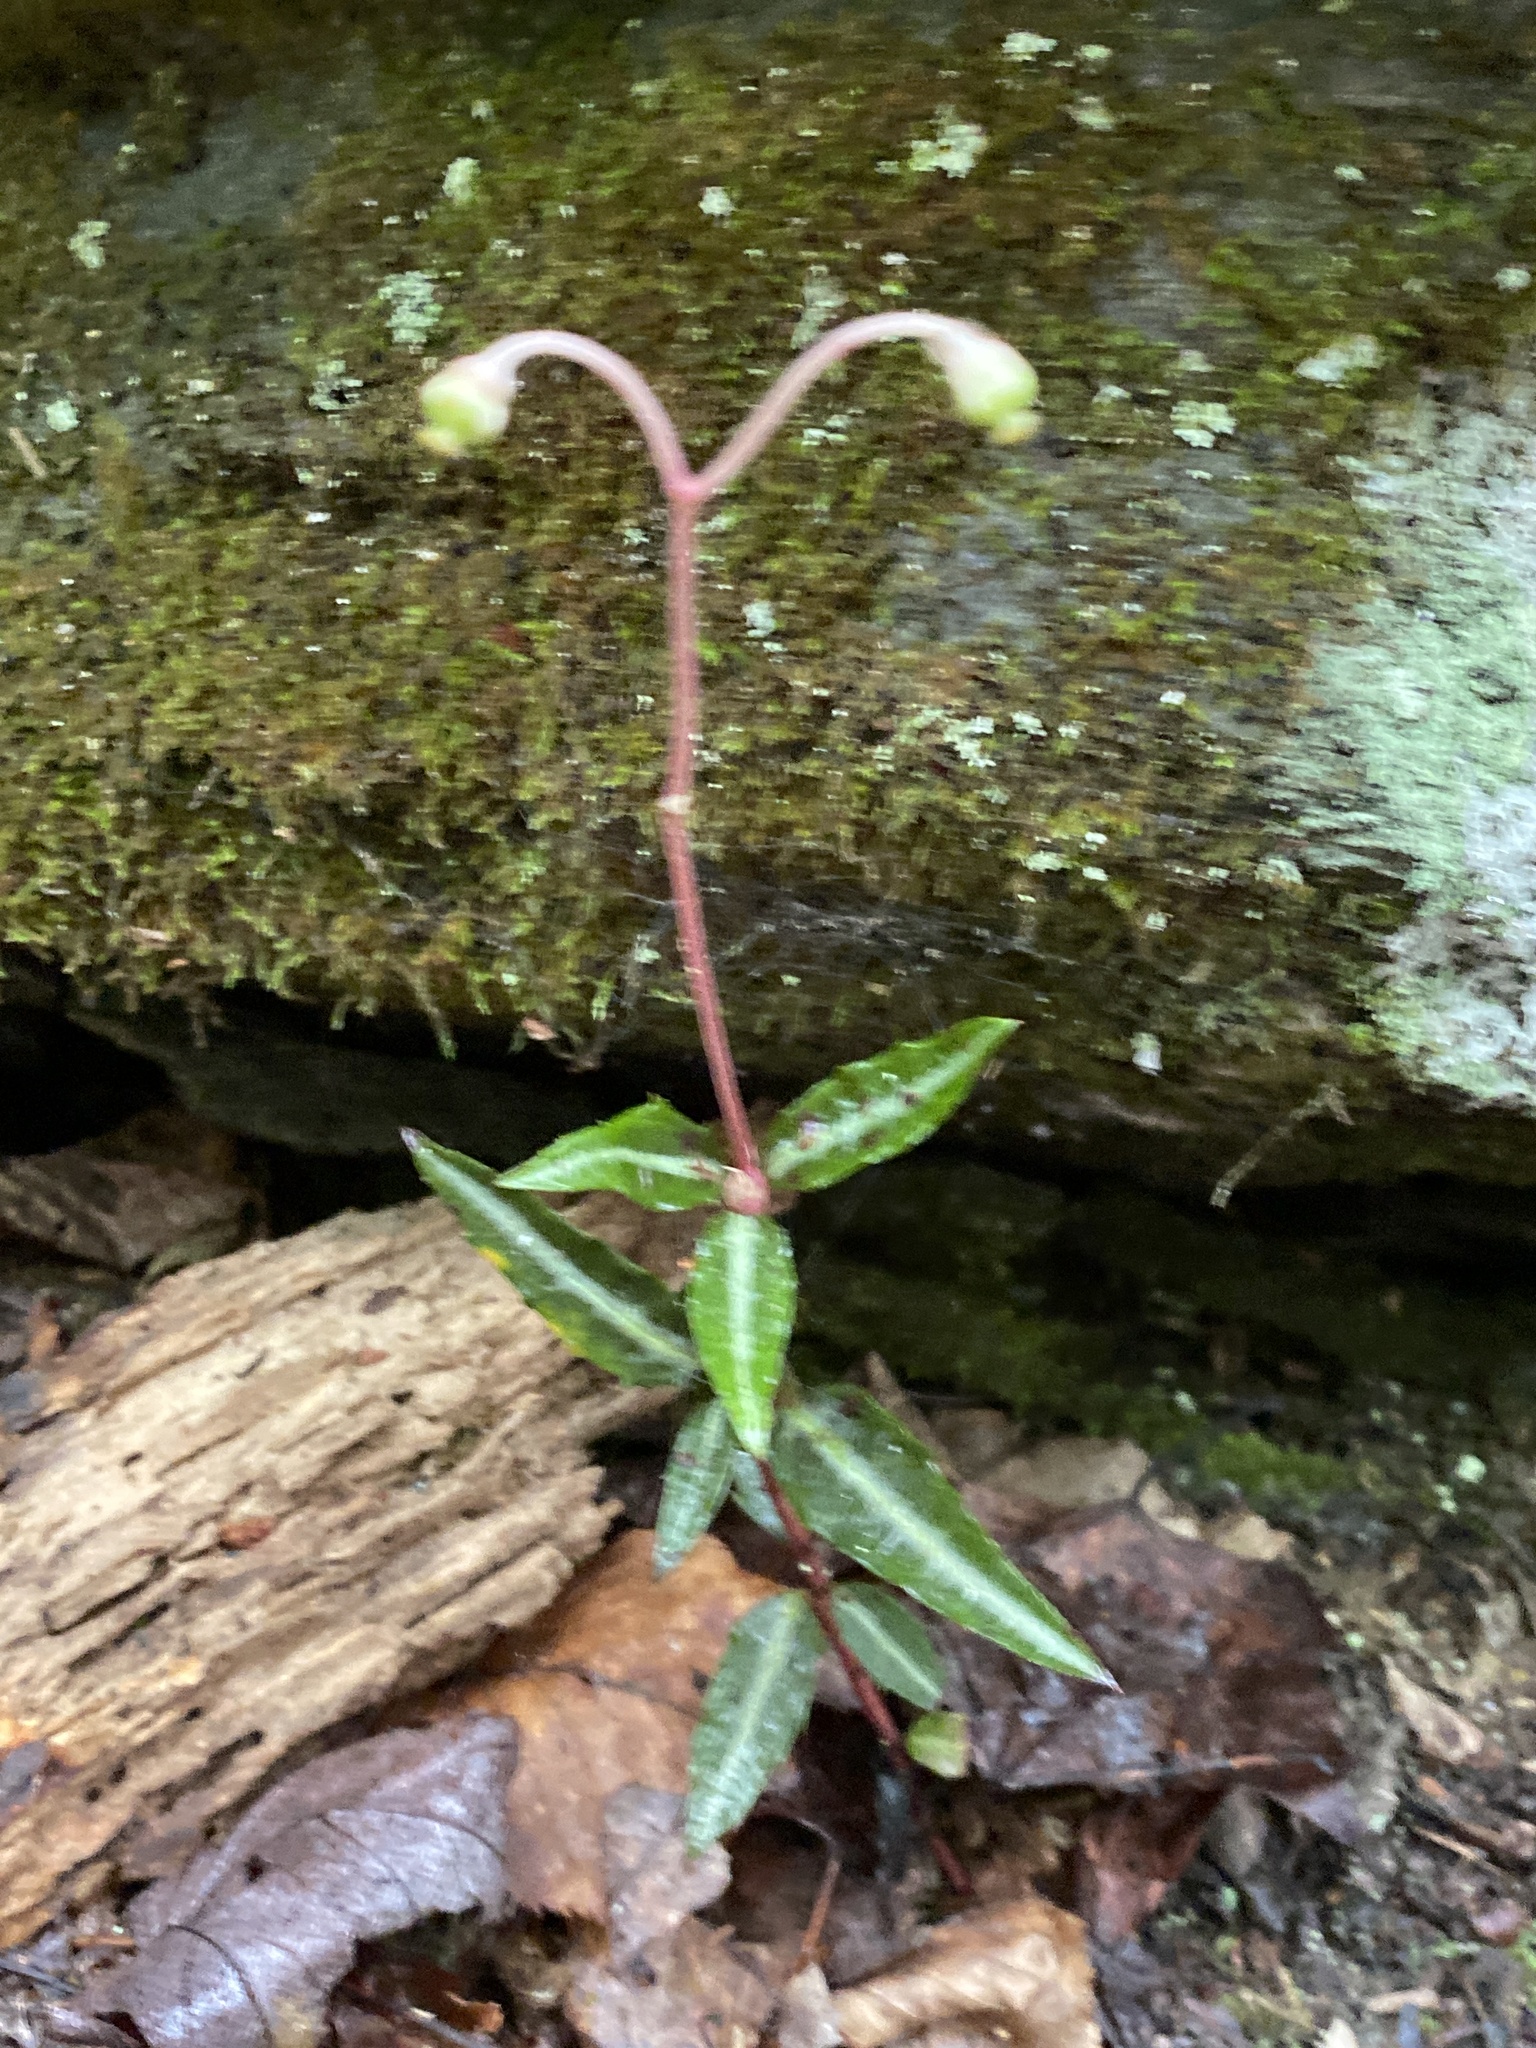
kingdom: Plantae
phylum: Tracheophyta
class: Magnoliopsida
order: Ericales
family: Ericaceae
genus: Chimaphila
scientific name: Chimaphila maculata
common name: Spotted pipsissewa
